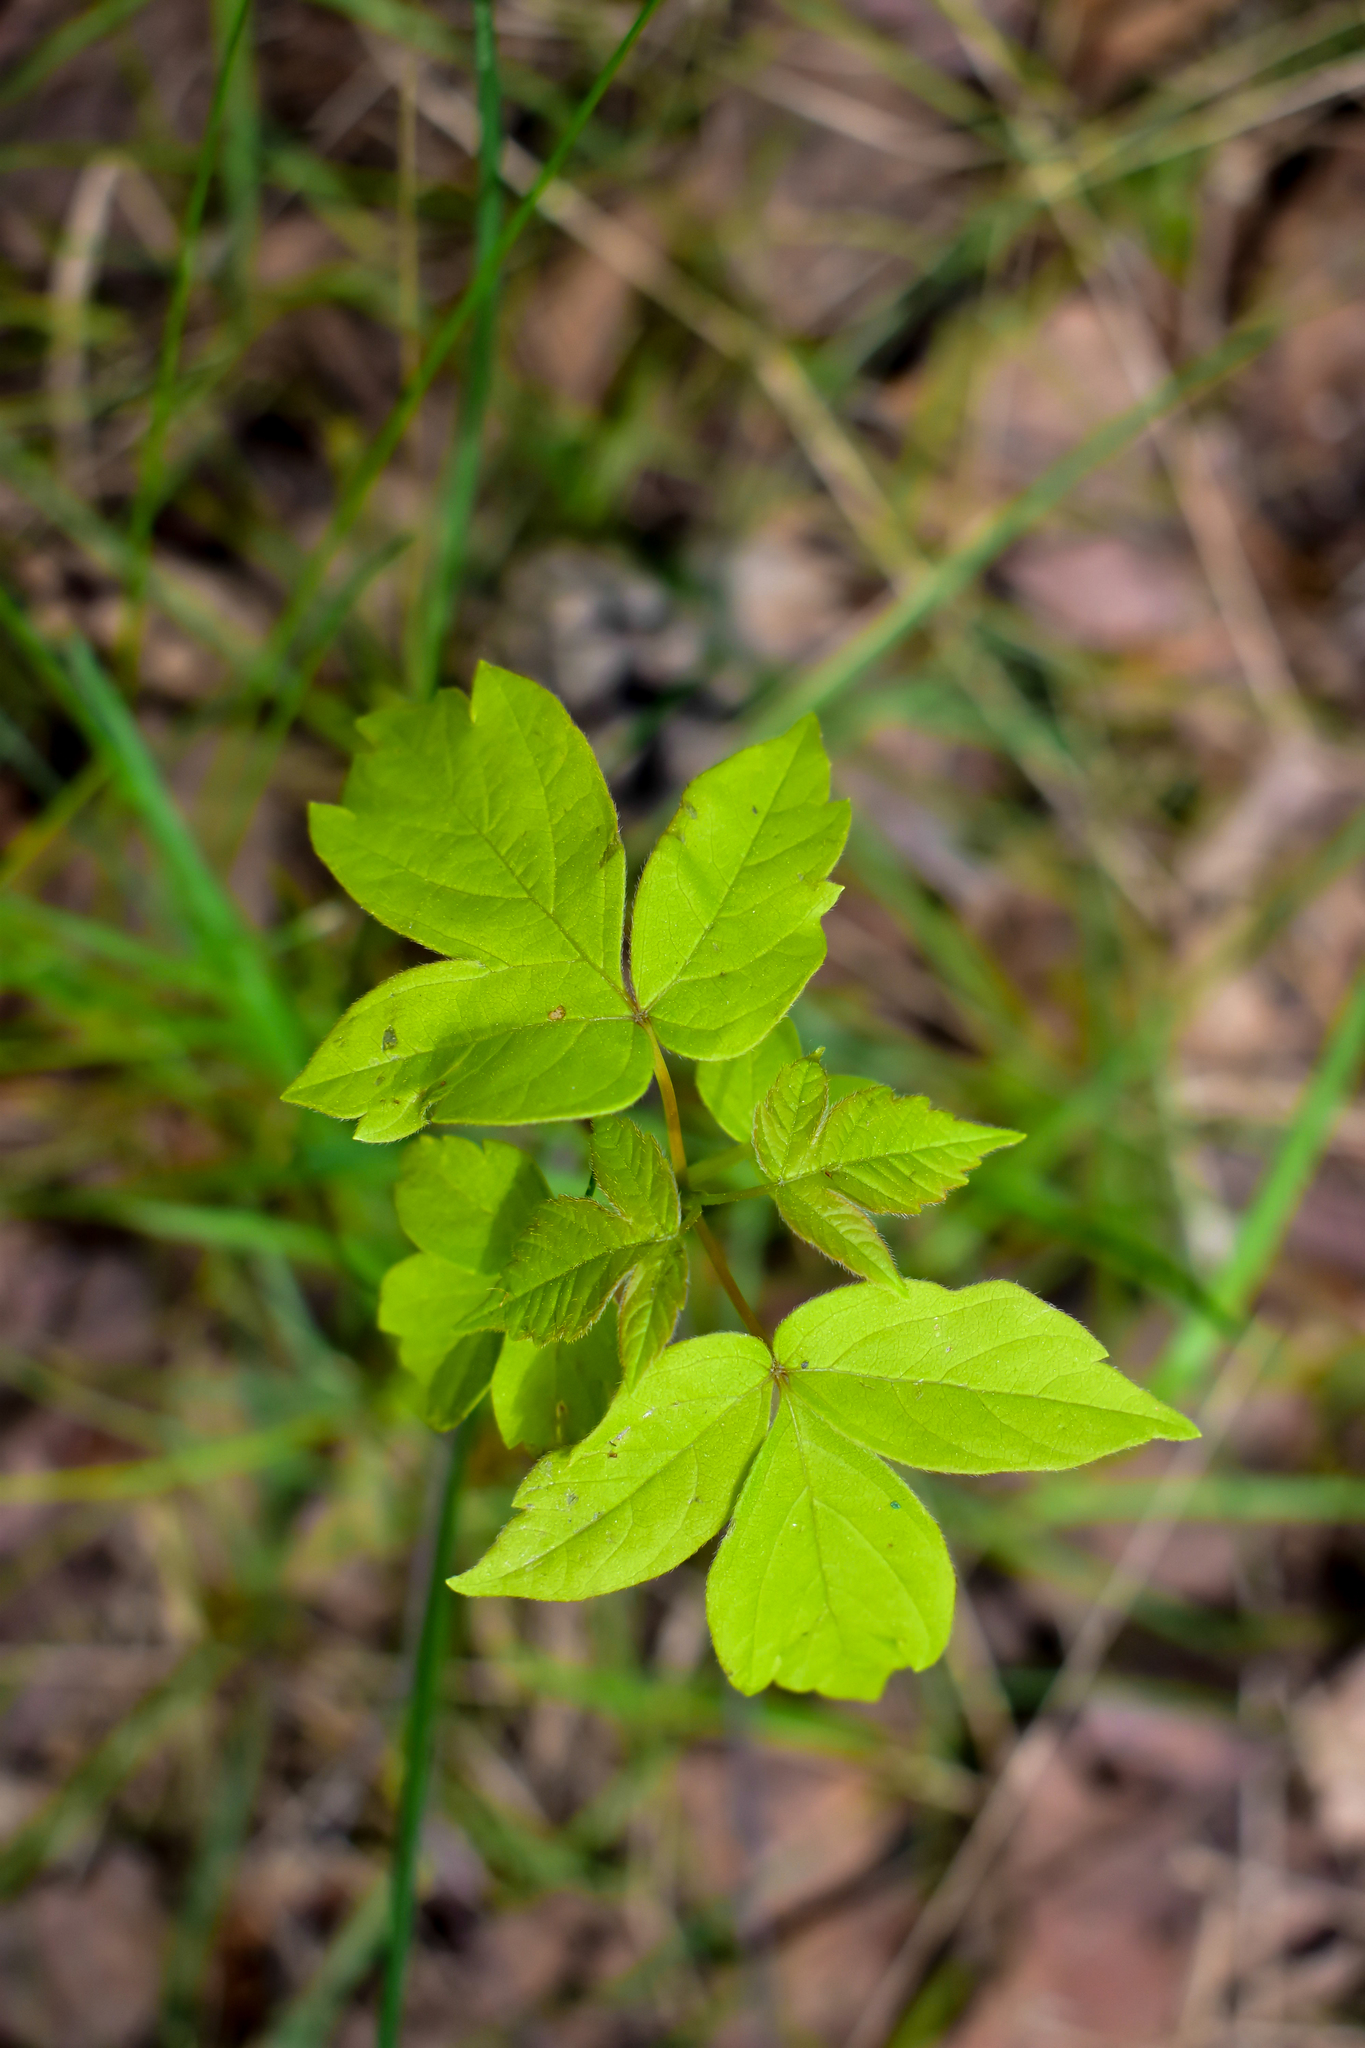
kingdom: Plantae
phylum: Tracheophyta
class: Magnoliopsida
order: Sapindales
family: Sapindaceae
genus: Acer
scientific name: Acer negundo
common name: Ashleaf maple
